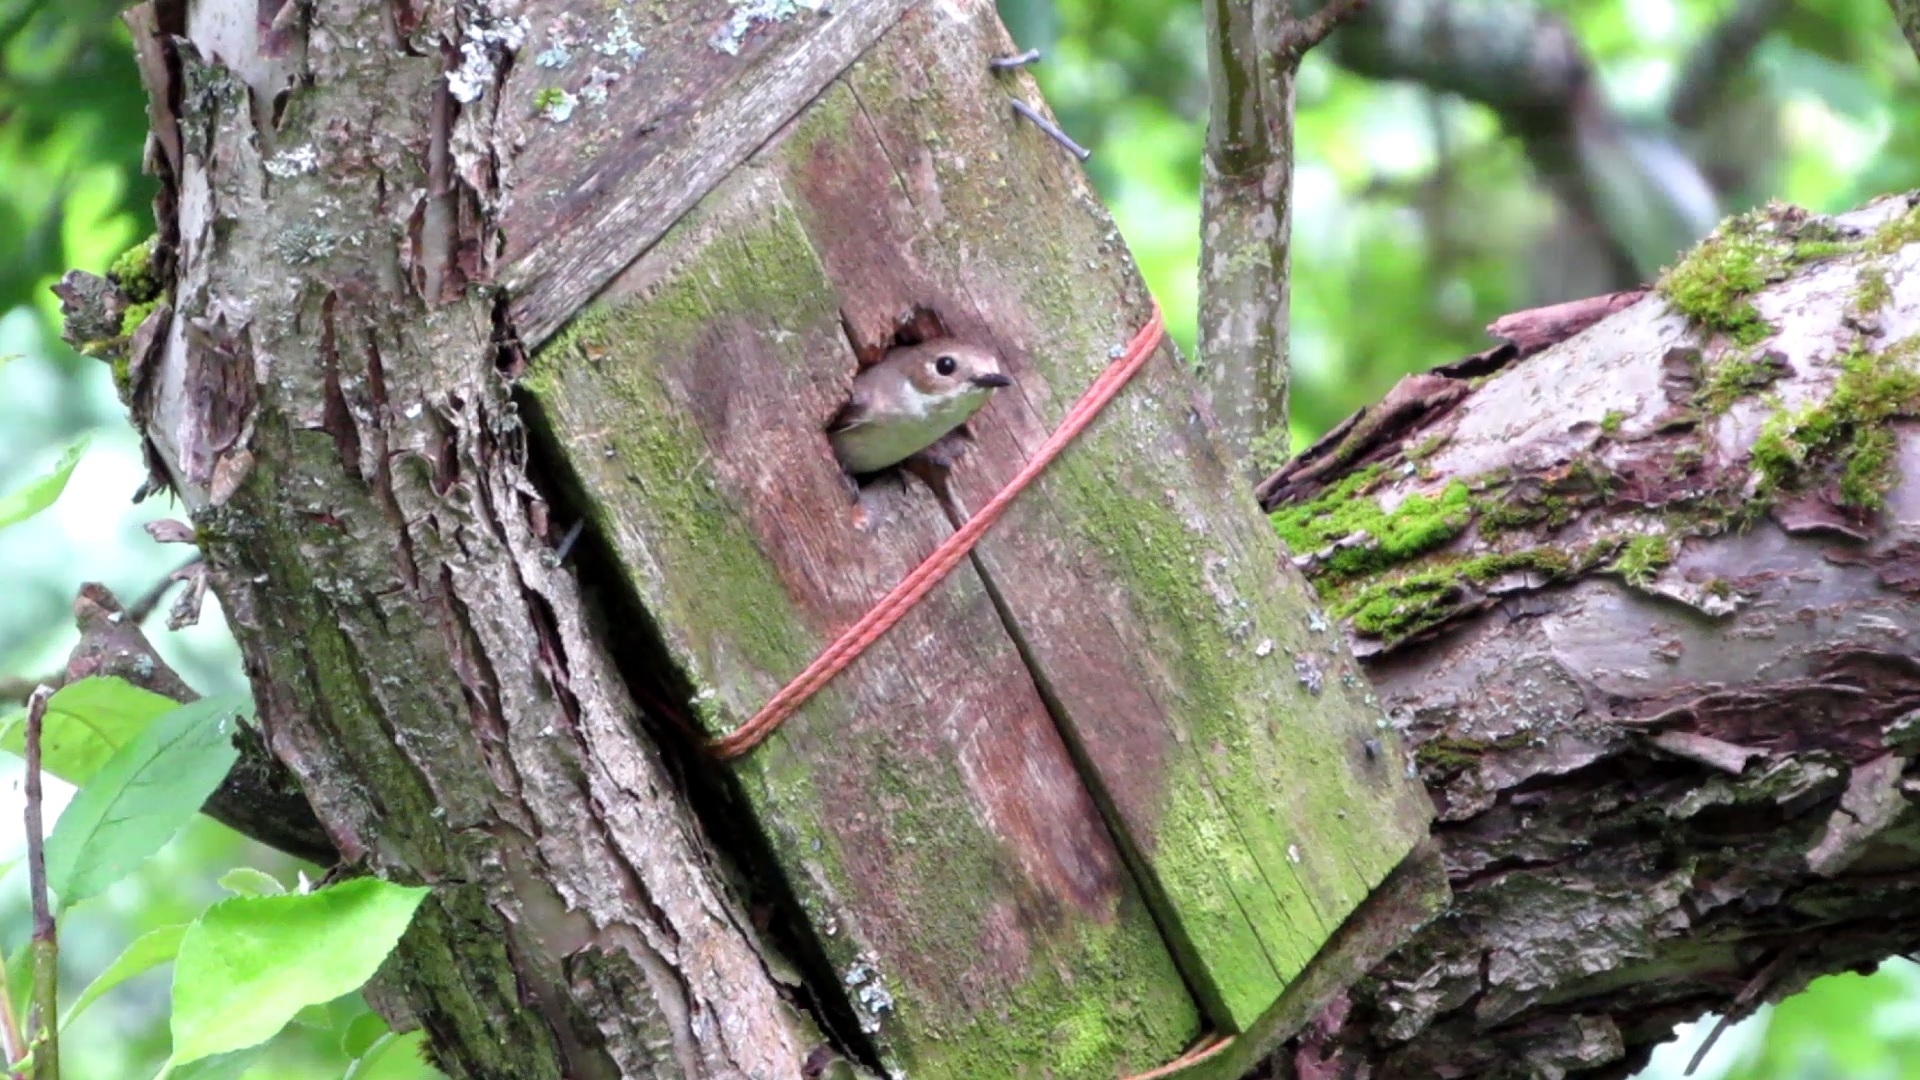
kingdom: Animalia
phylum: Chordata
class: Aves
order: Passeriformes
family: Muscicapidae
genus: Ficedula
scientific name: Ficedula hypoleuca
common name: European pied flycatcher
